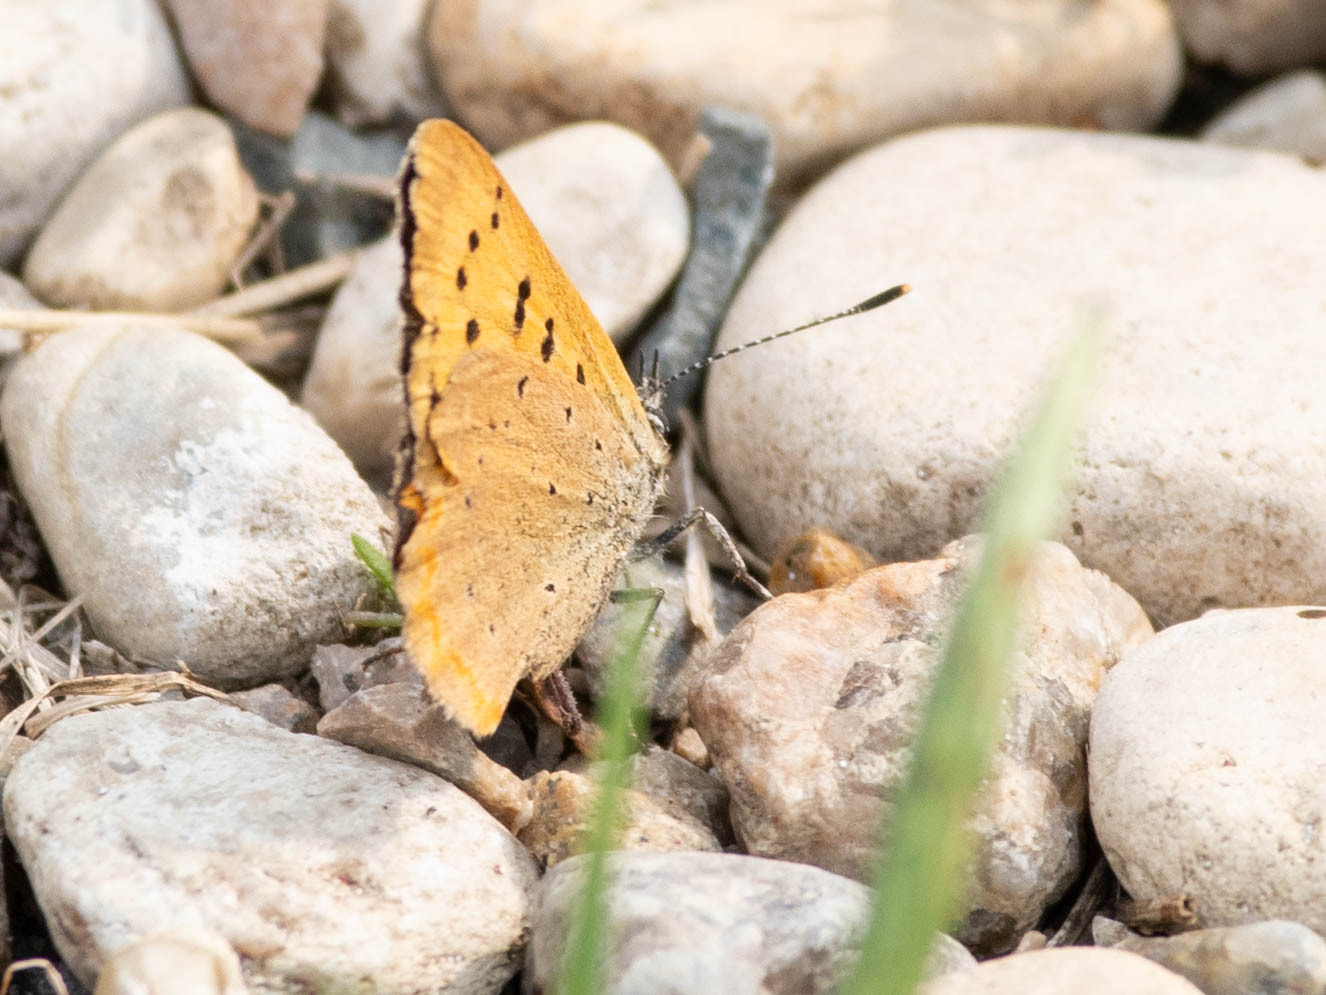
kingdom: Animalia
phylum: Arthropoda
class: Insecta
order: Lepidoptera
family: Lycaenidae
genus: Tharsalea
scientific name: Tharsalea helloides
